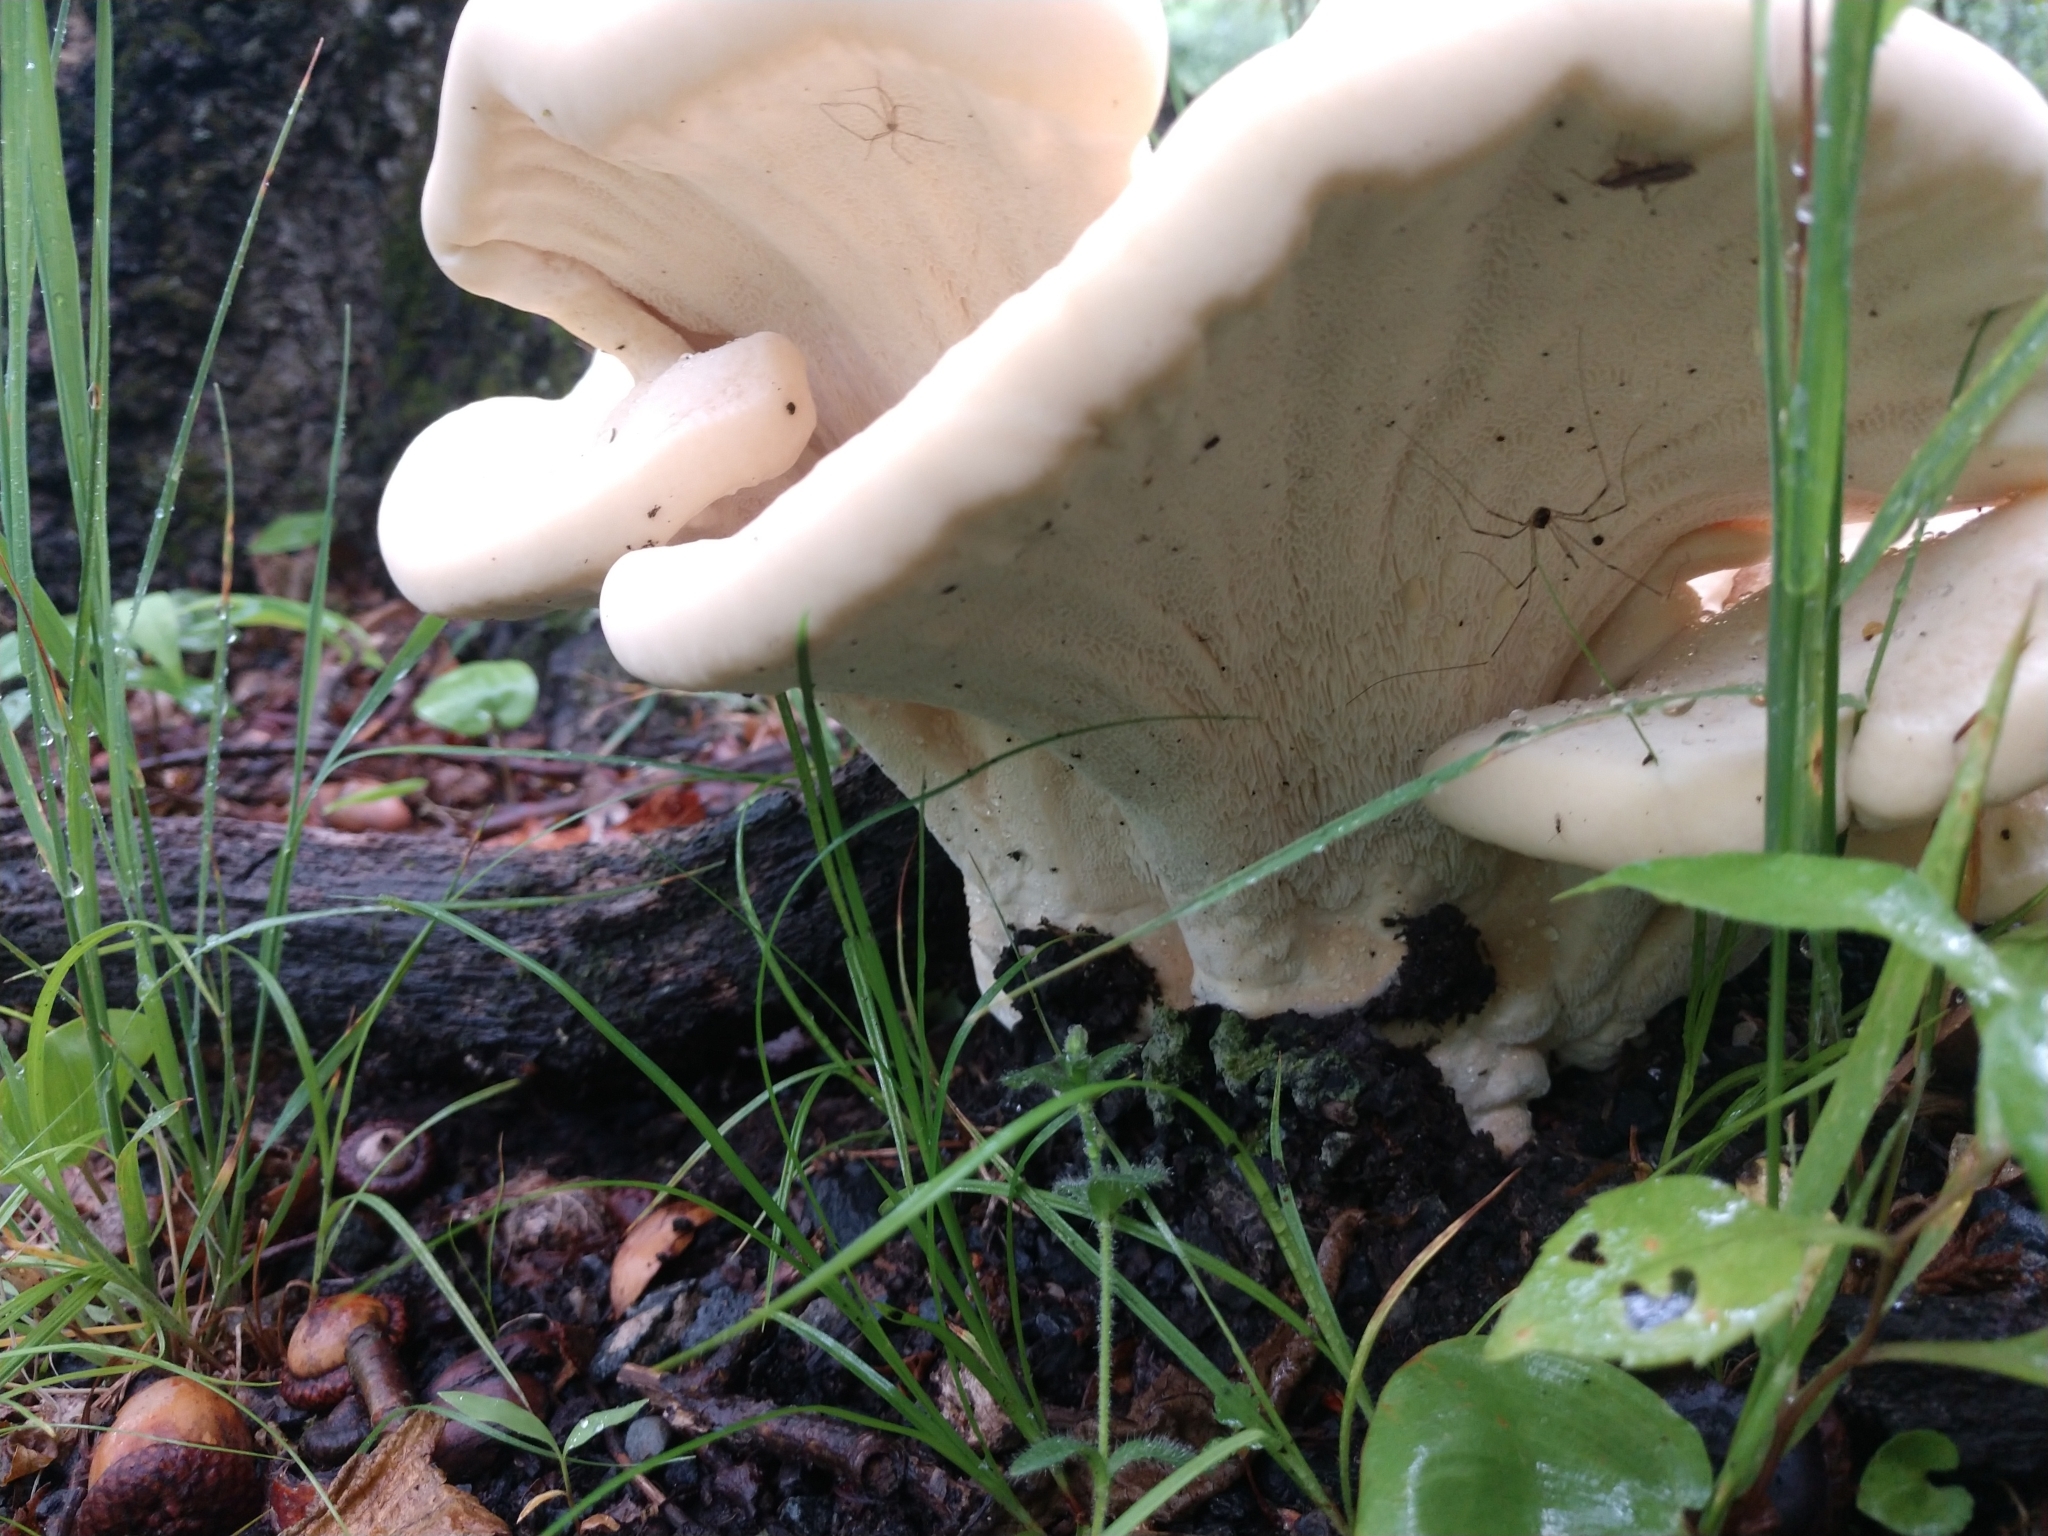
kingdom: Fungi
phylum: Basidiomycota
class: Agaricomycetes
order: Russulales
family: Bondarzewiaceae
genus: Bondarzewia
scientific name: Bondarzewia berkeleyi
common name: Berkeley's polypore
